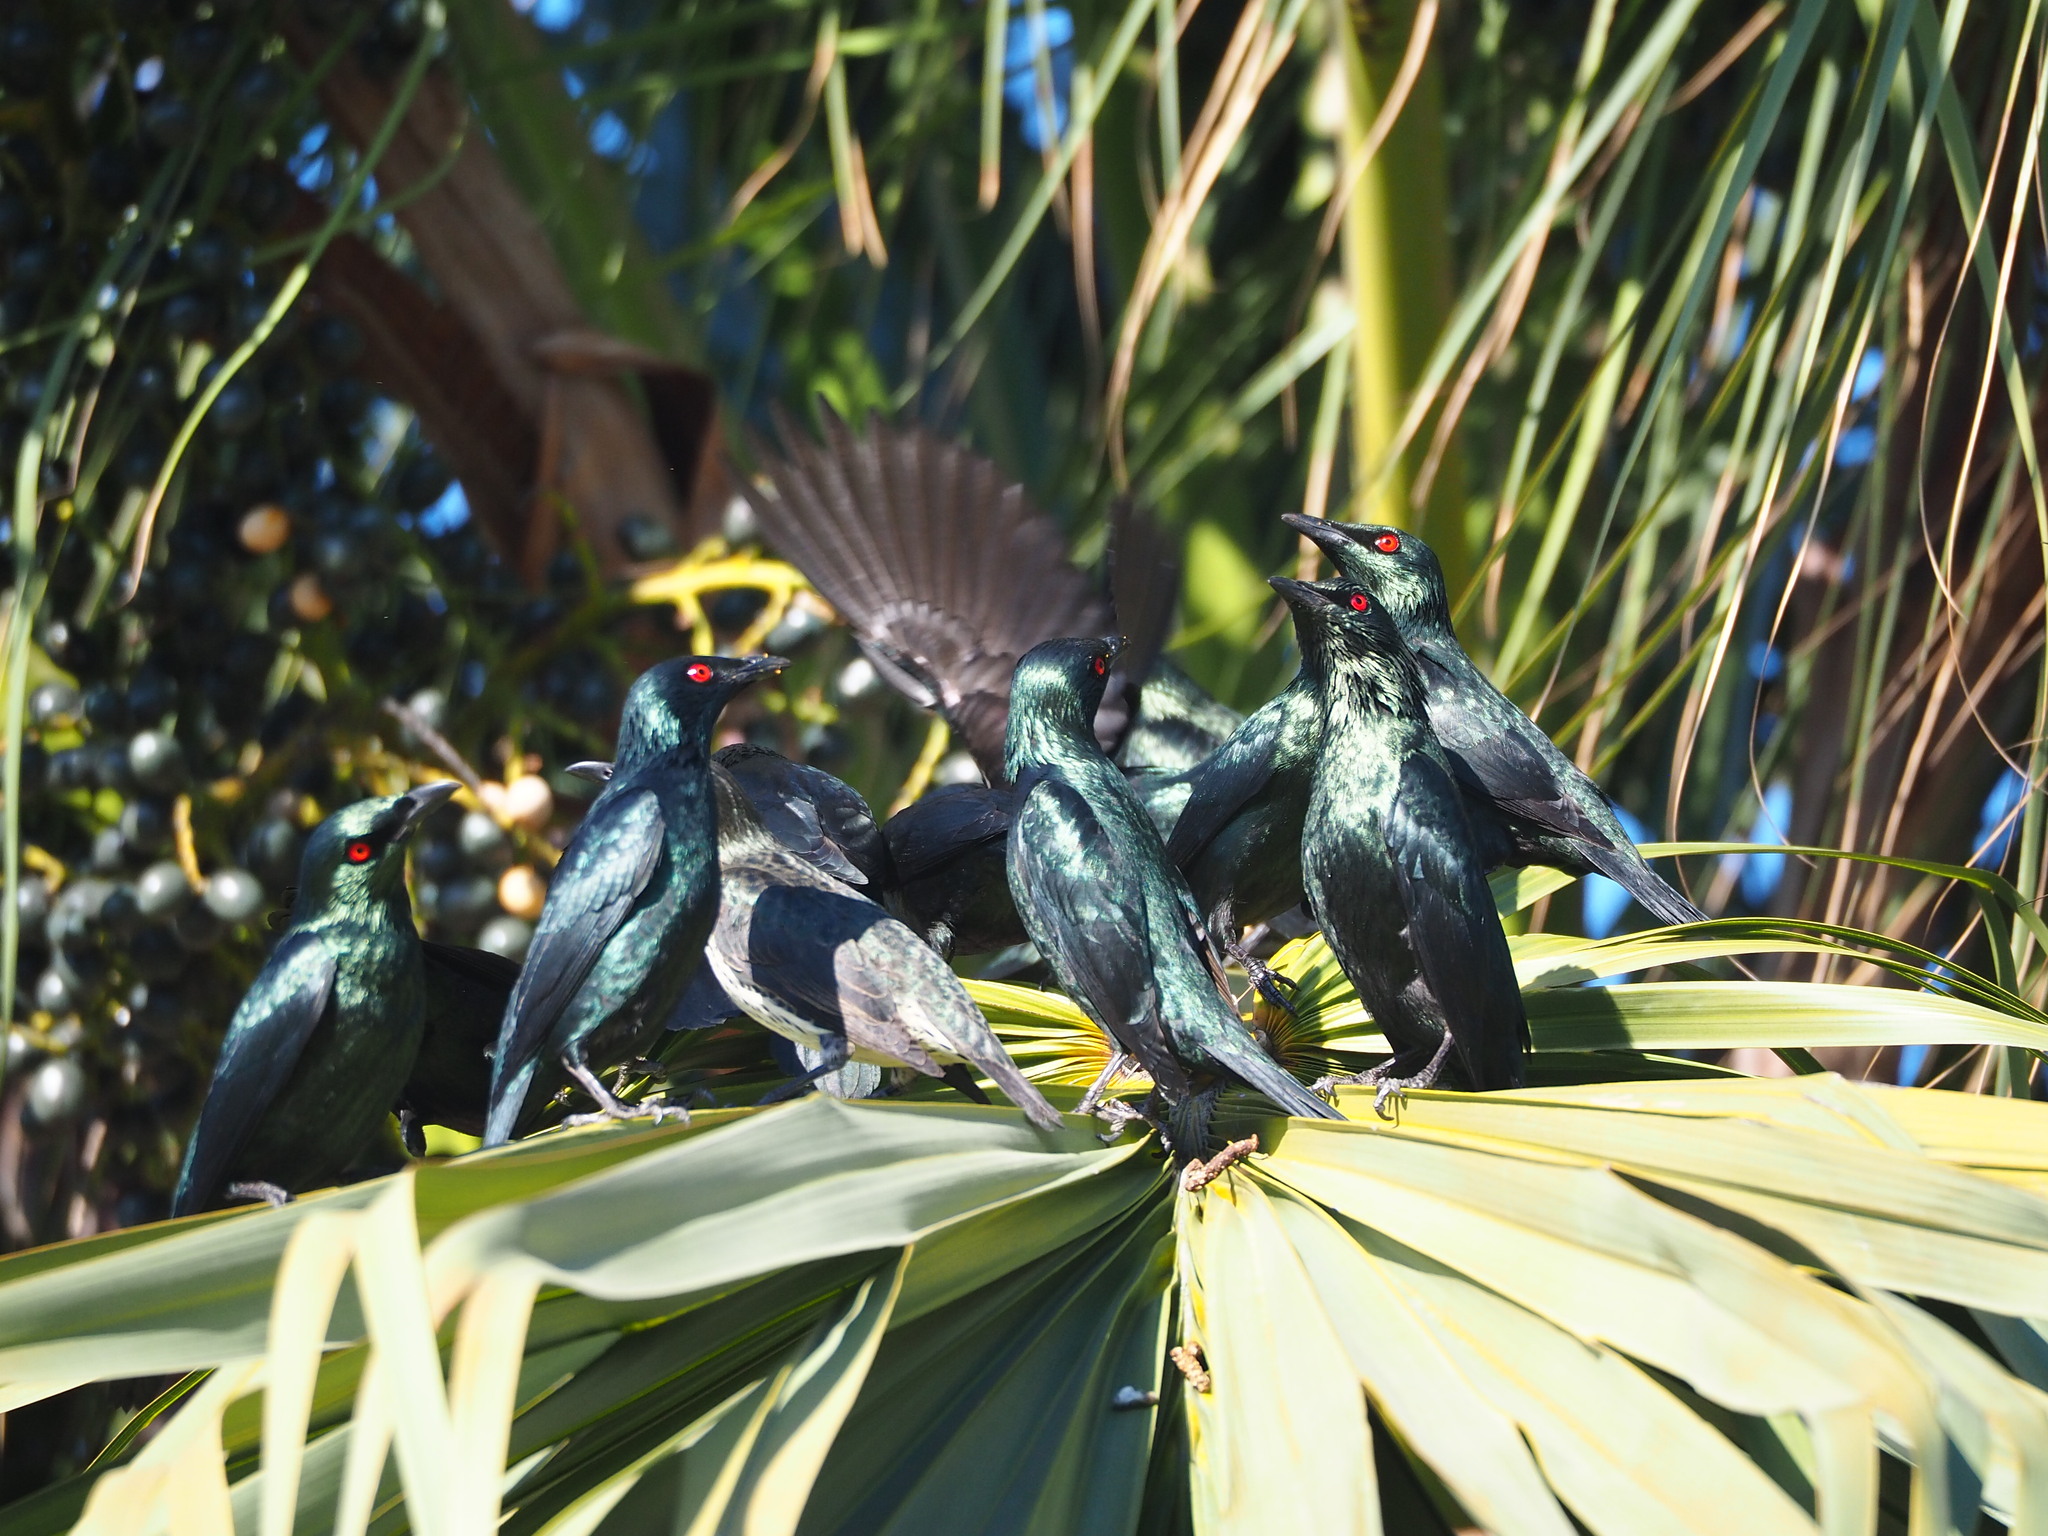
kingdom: Animalia
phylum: Chordata
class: Aves
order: Passeriformes
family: Sturnidae
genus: Aplonis
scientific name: Aplonis panayensis
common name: Asian glossy starling
